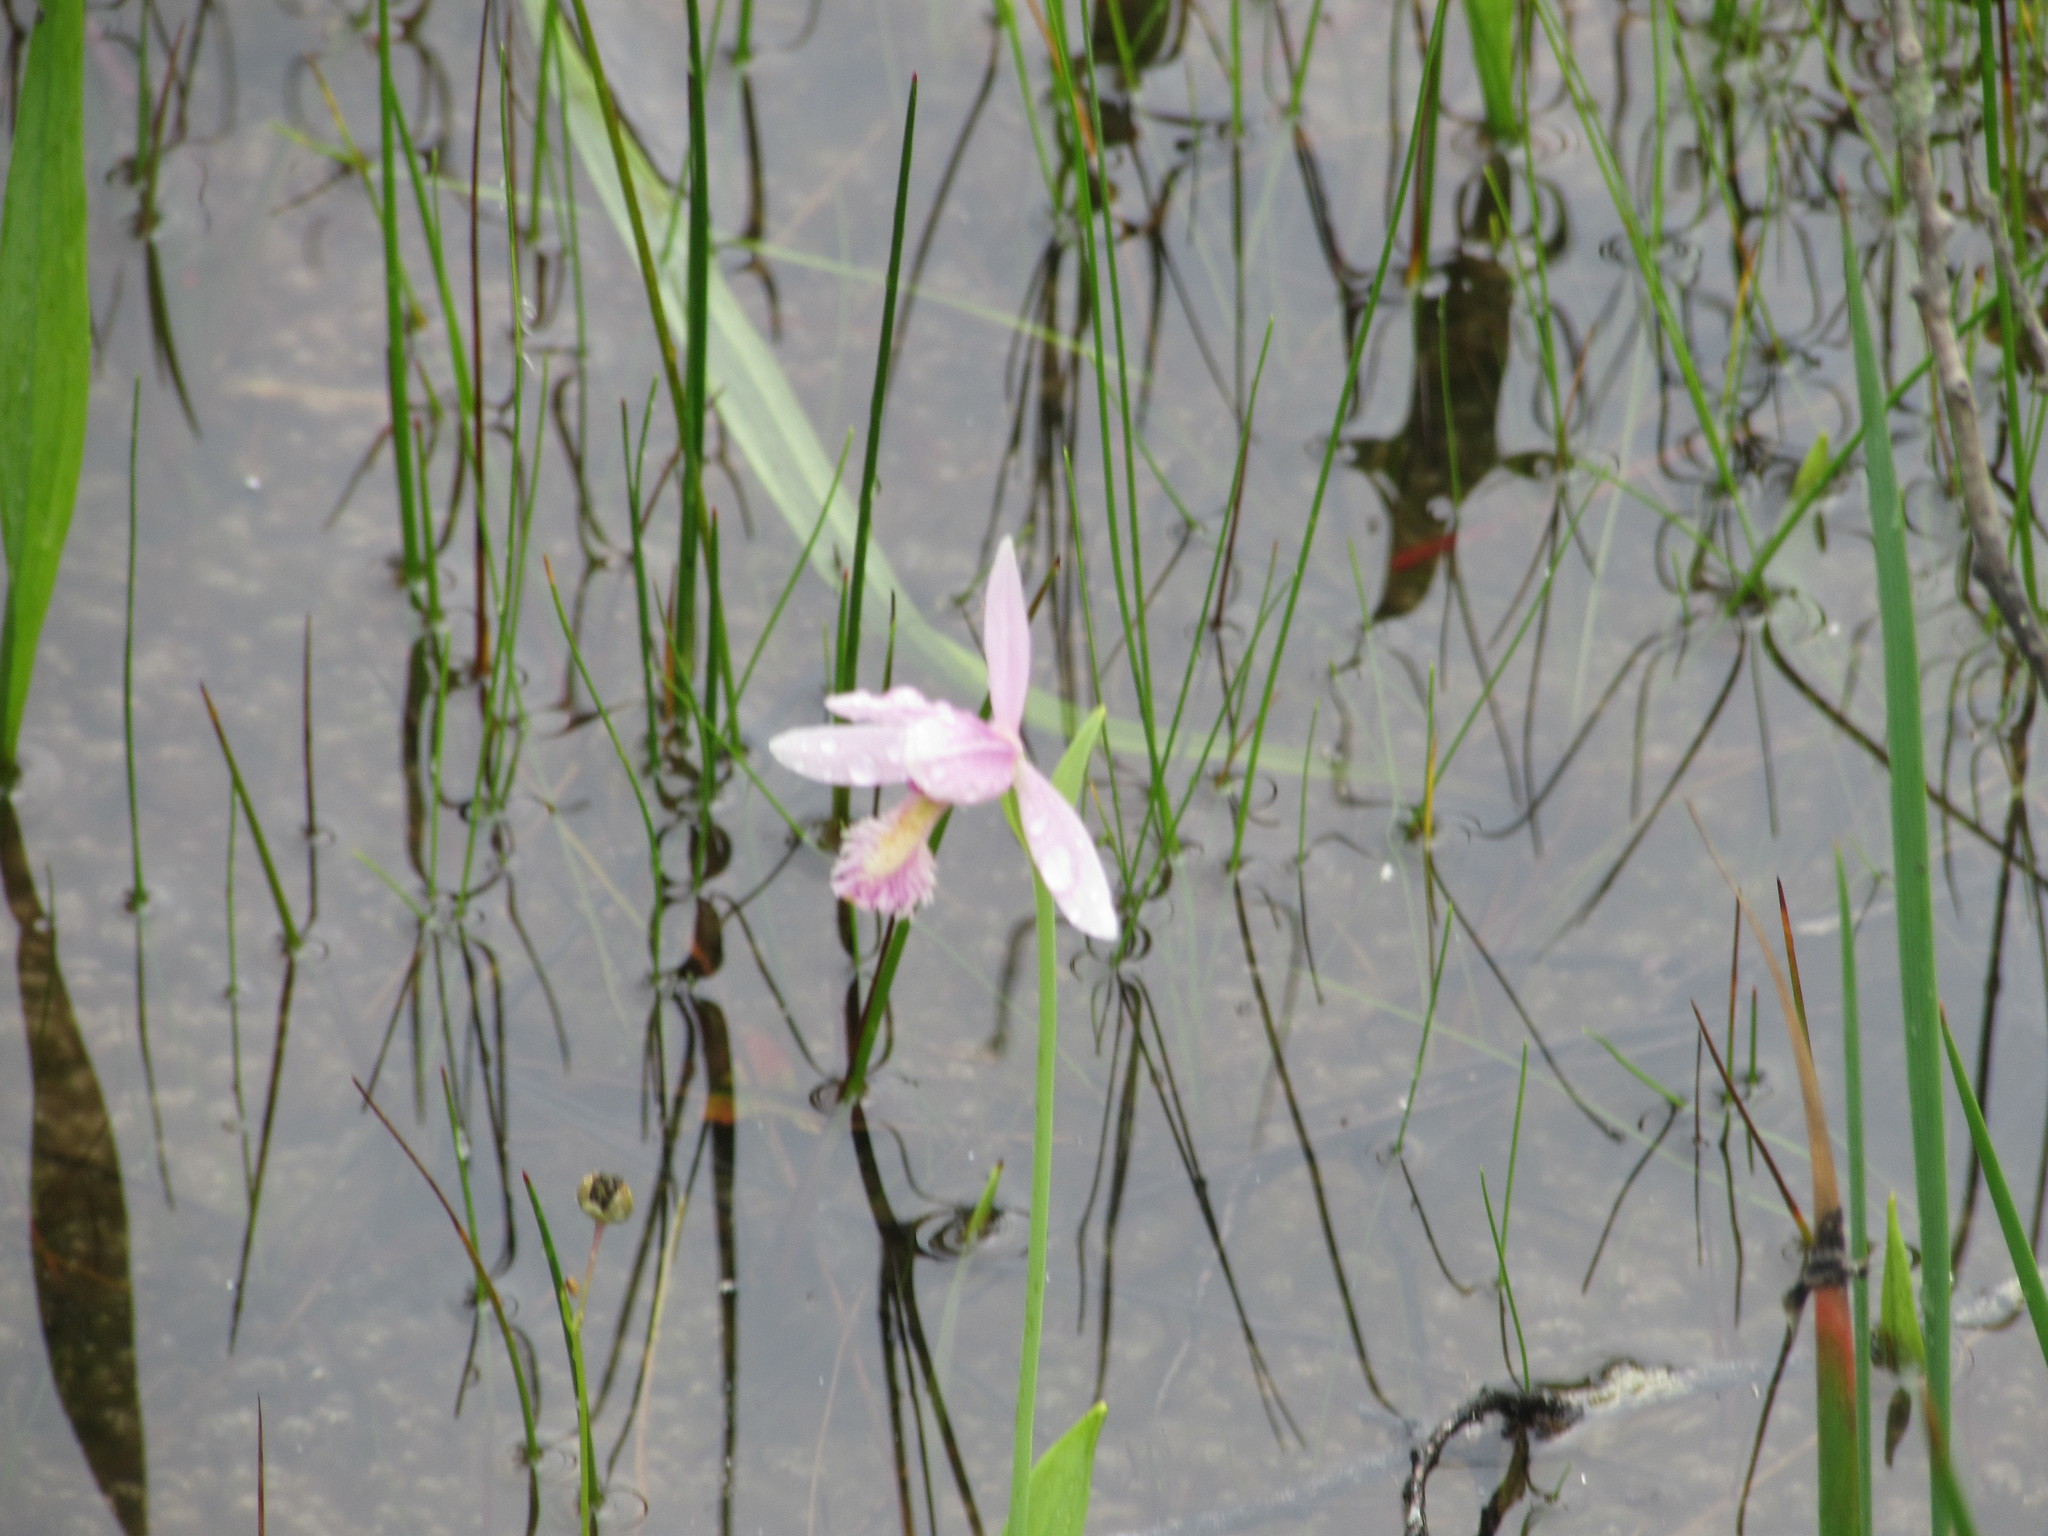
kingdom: Plantae
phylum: Tracheophyta
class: Liliopsida
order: Asparagales
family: Orchidaceae
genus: Pogonia
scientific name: Pogonia ophioglossoides
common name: Rose pogonia
